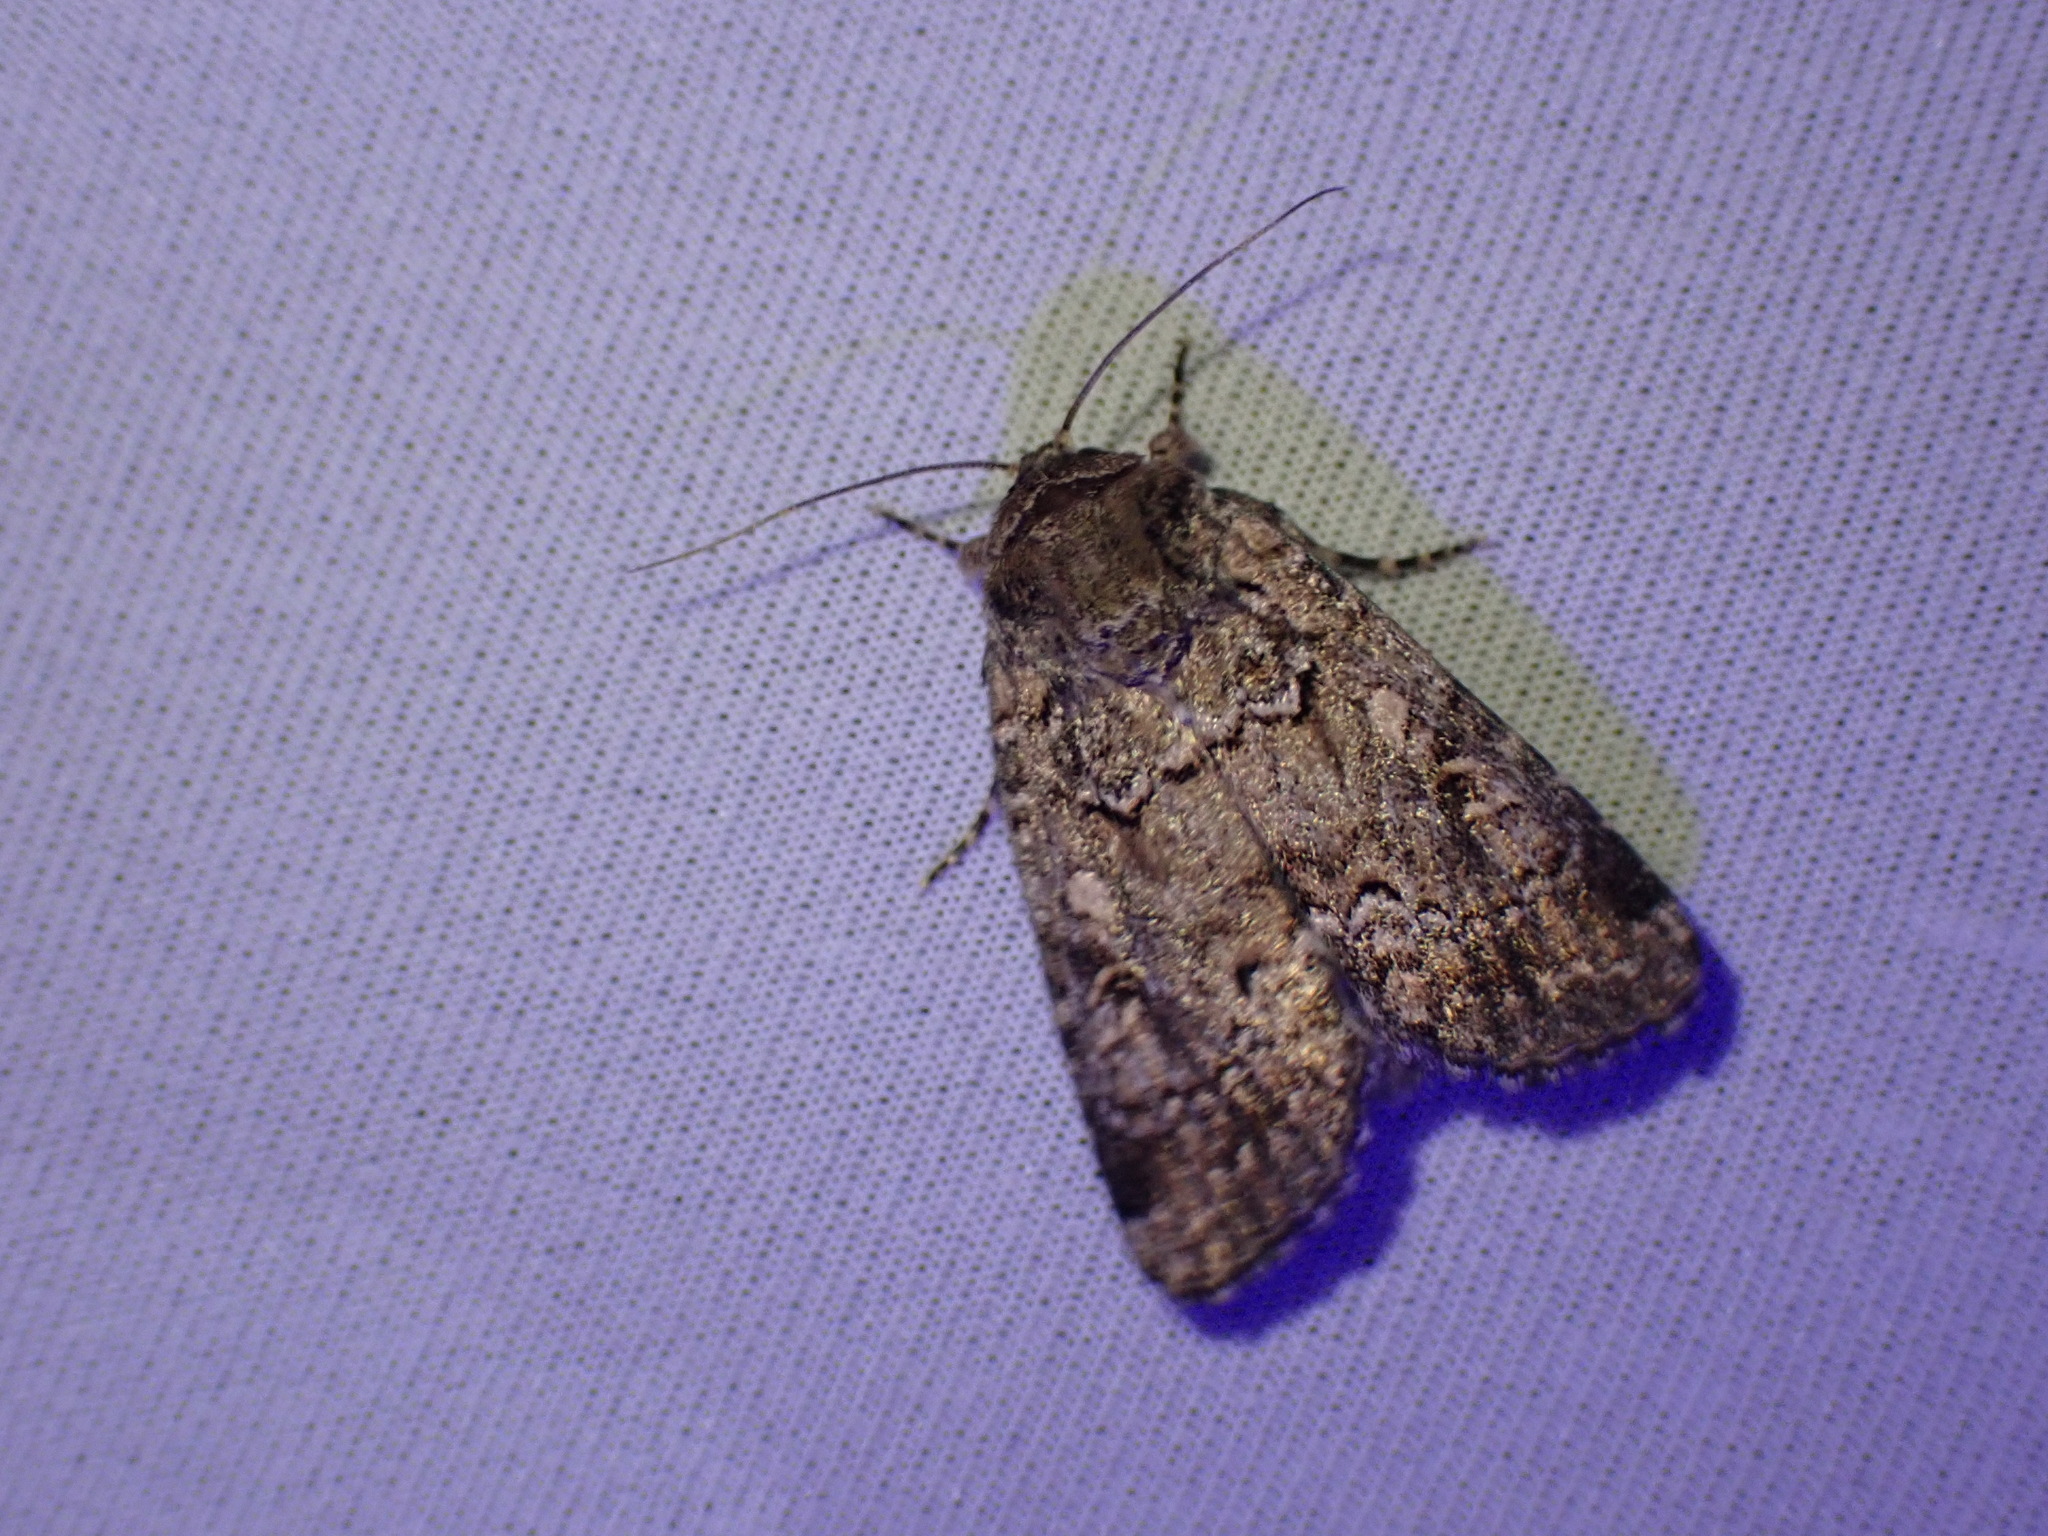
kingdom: Animalia
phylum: Arthropoda
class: Insecta
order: Lepidoptera
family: Noctuidae
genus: Spodoptera
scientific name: Spodoptera umbraculata
